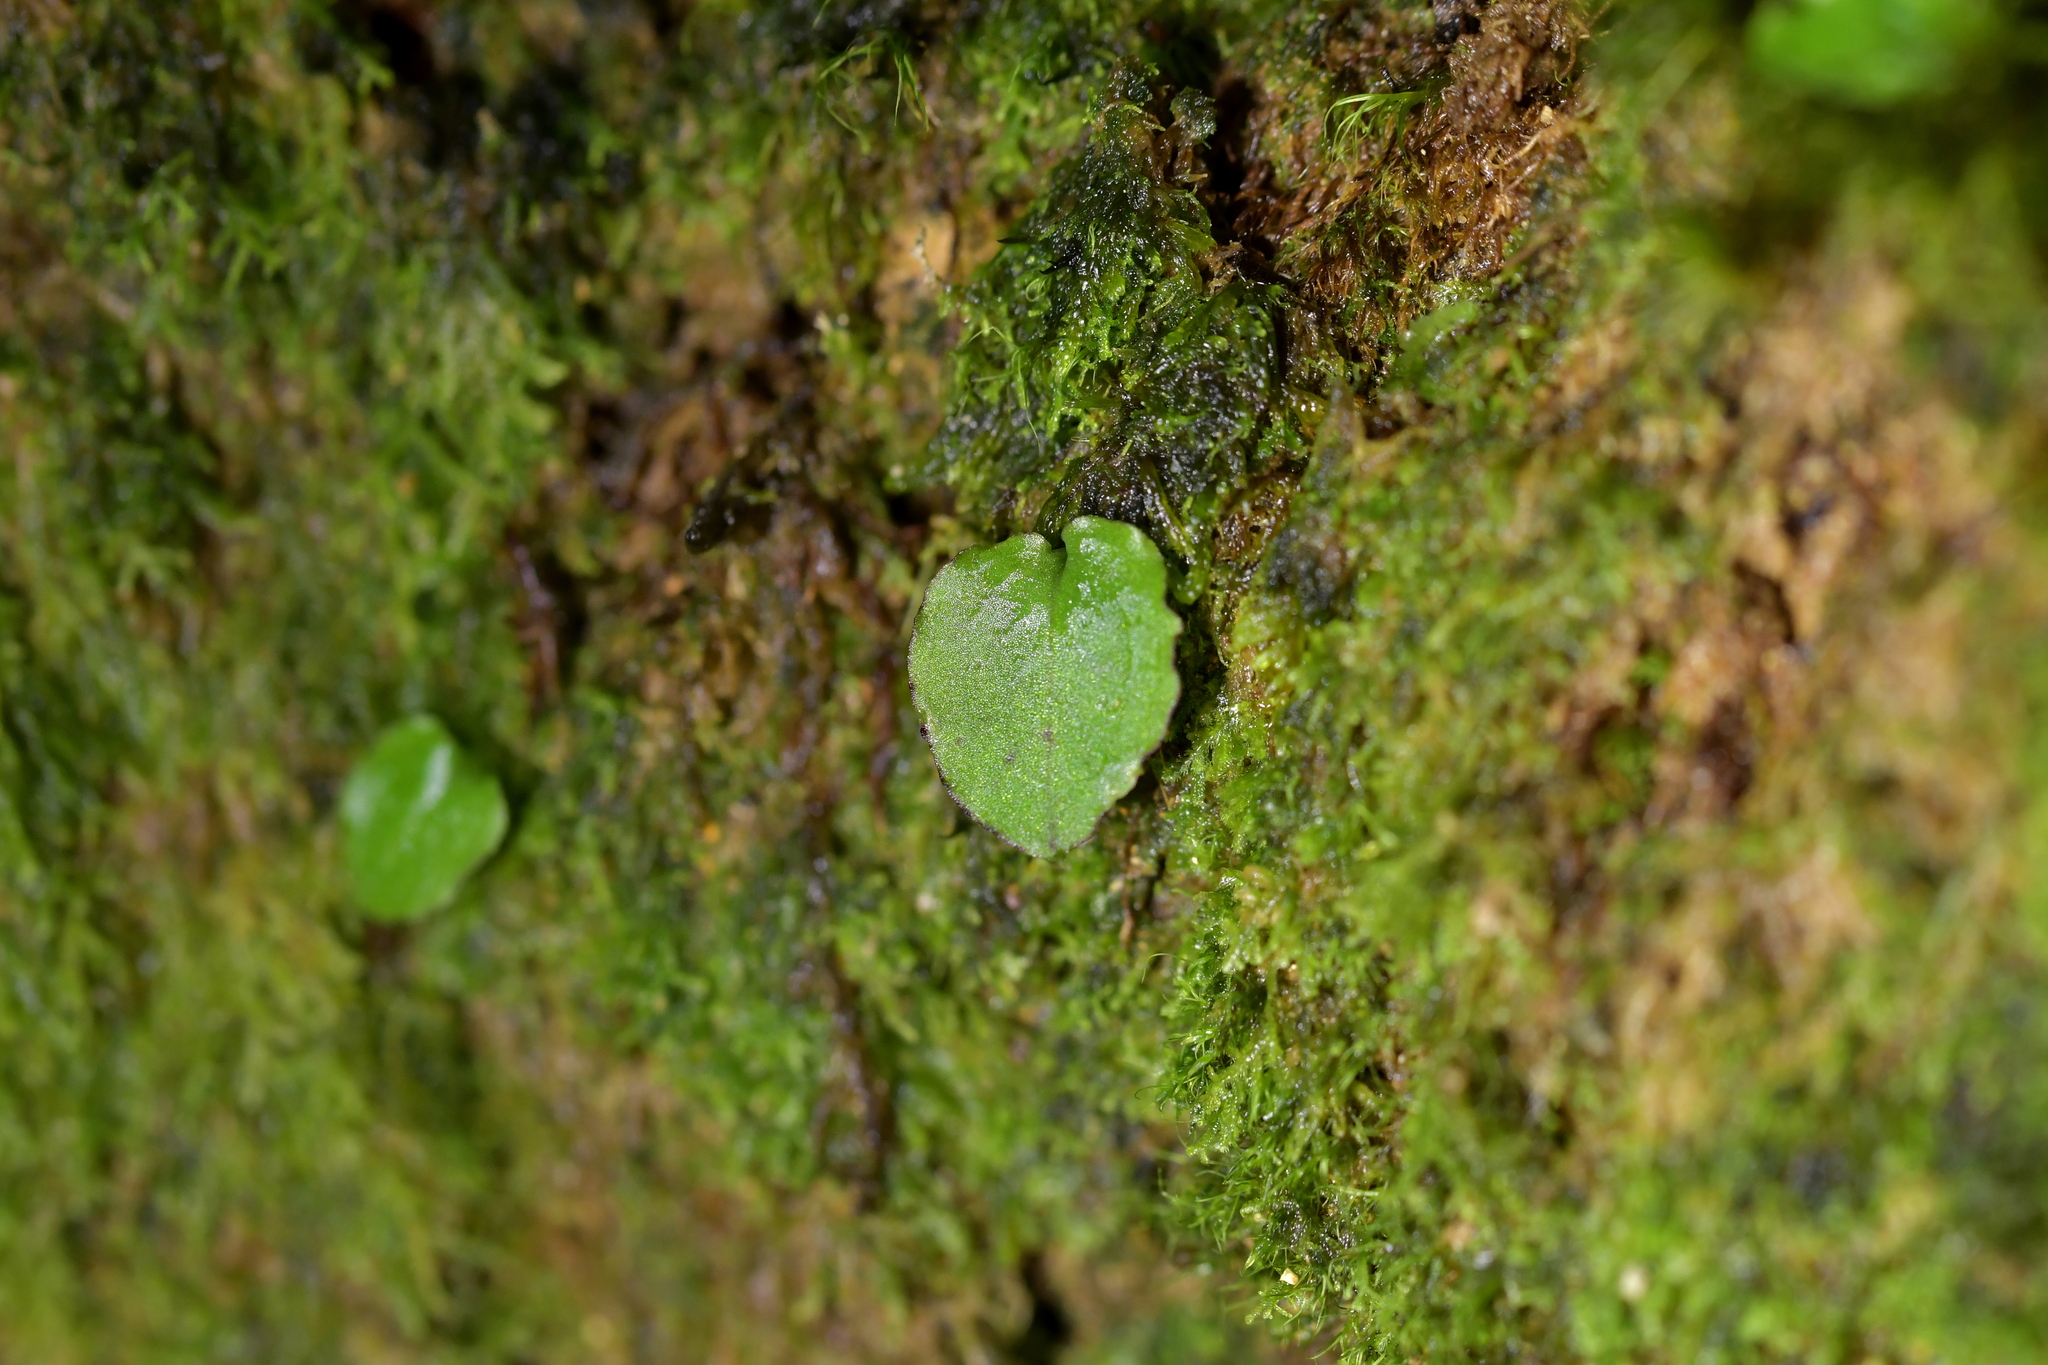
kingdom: Plantae
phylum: Tracheophyta
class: Liliopsida
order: Asparagales
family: Orchidaceae
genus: Corybas
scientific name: Corybas oblongus
